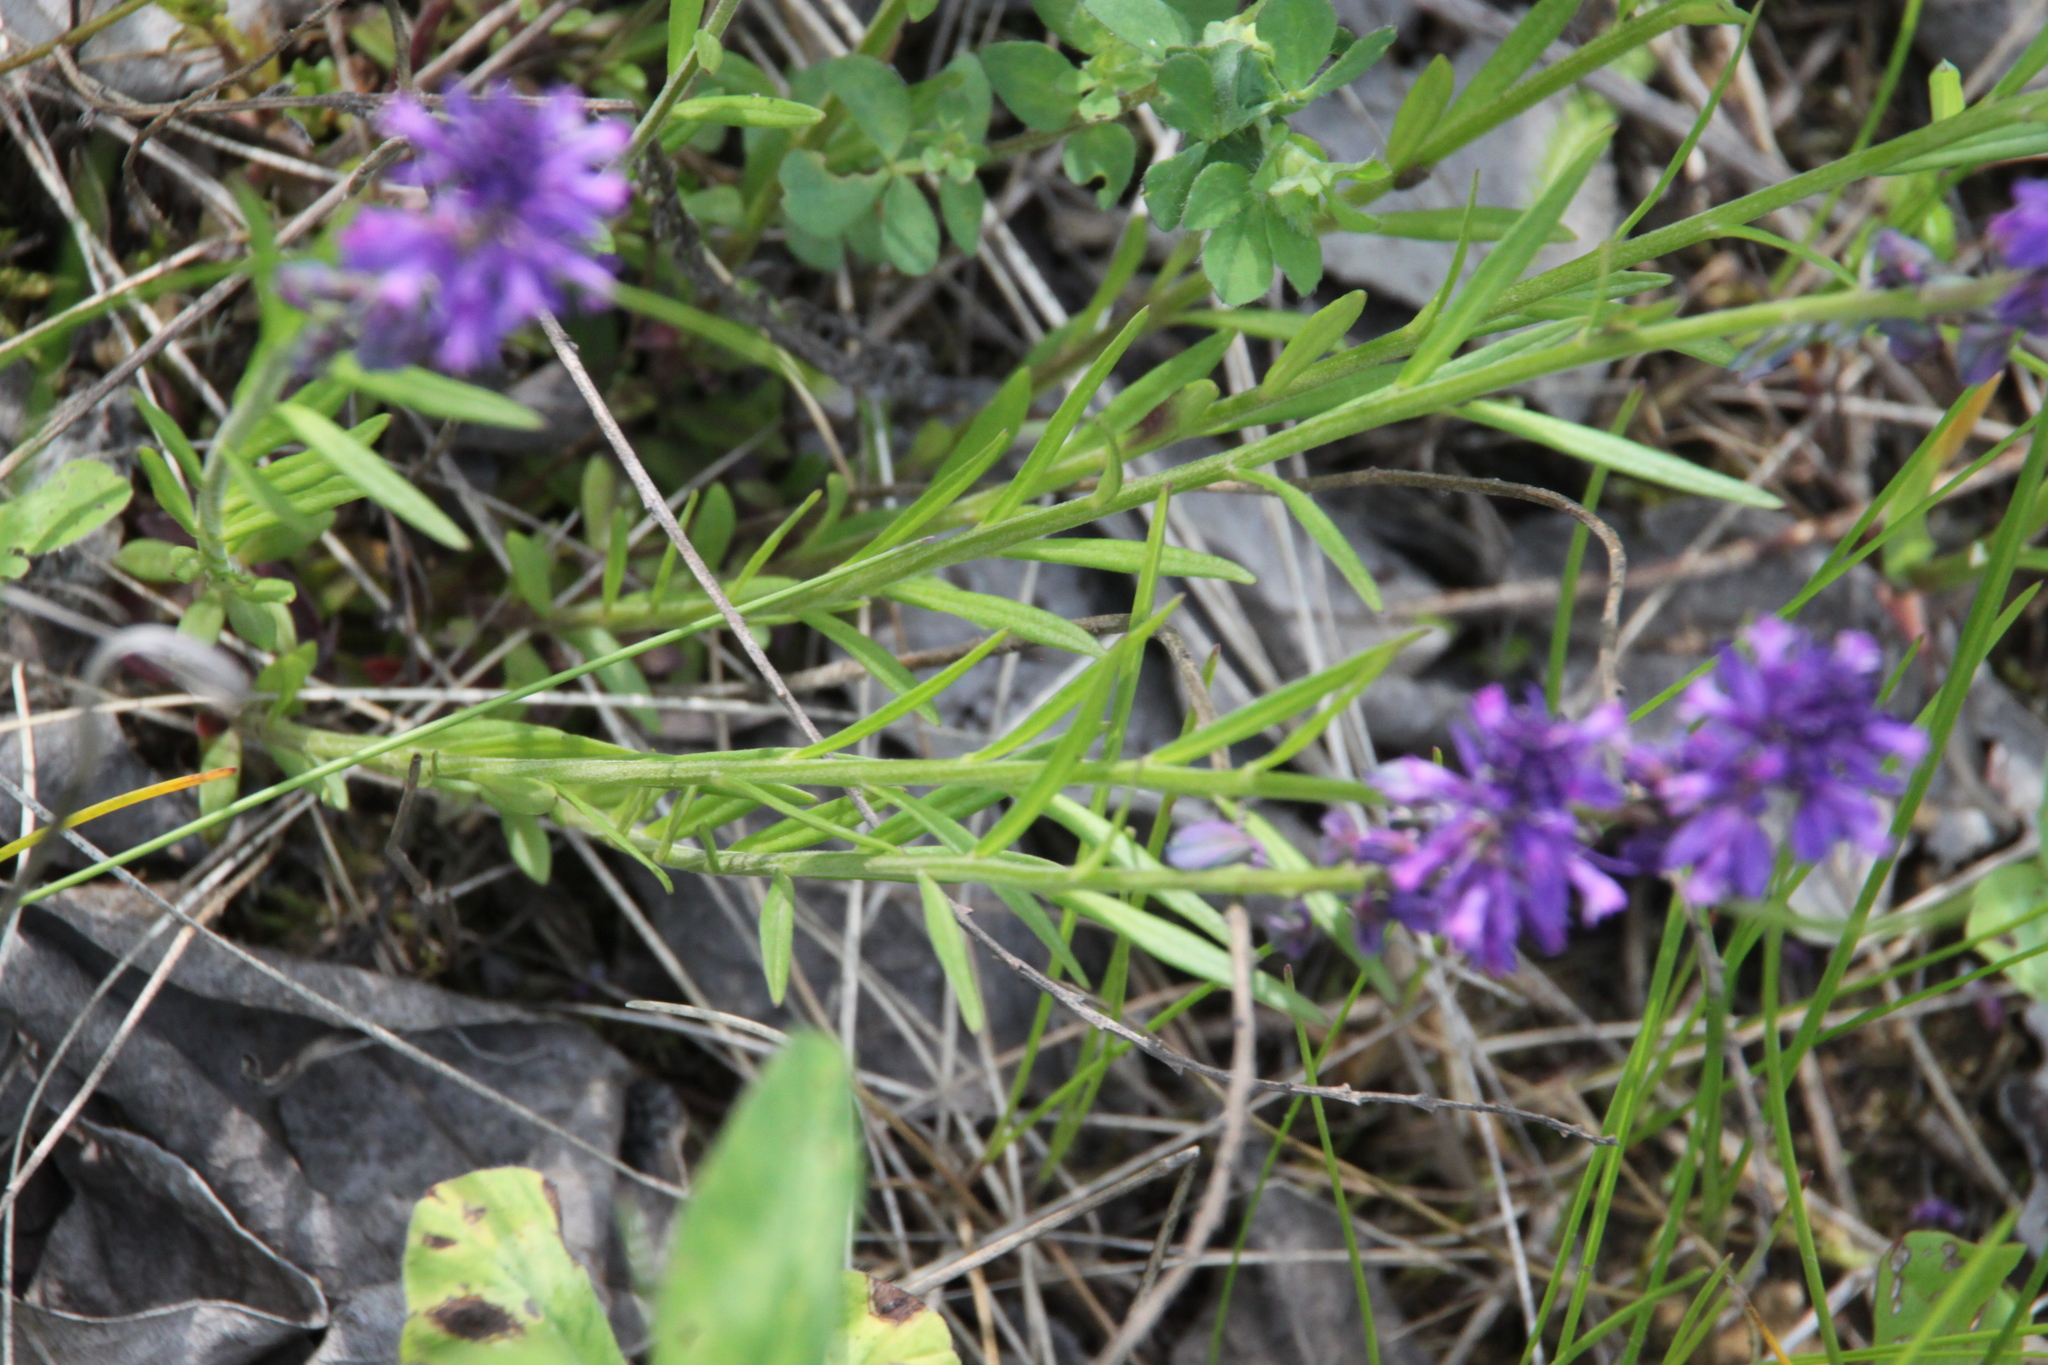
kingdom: Plantae
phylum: Tracheophyta
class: Magnoliopsida
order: Fabales
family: Polygalaceae
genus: Polygala
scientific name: Polygala comosa
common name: Tufted milkwort
